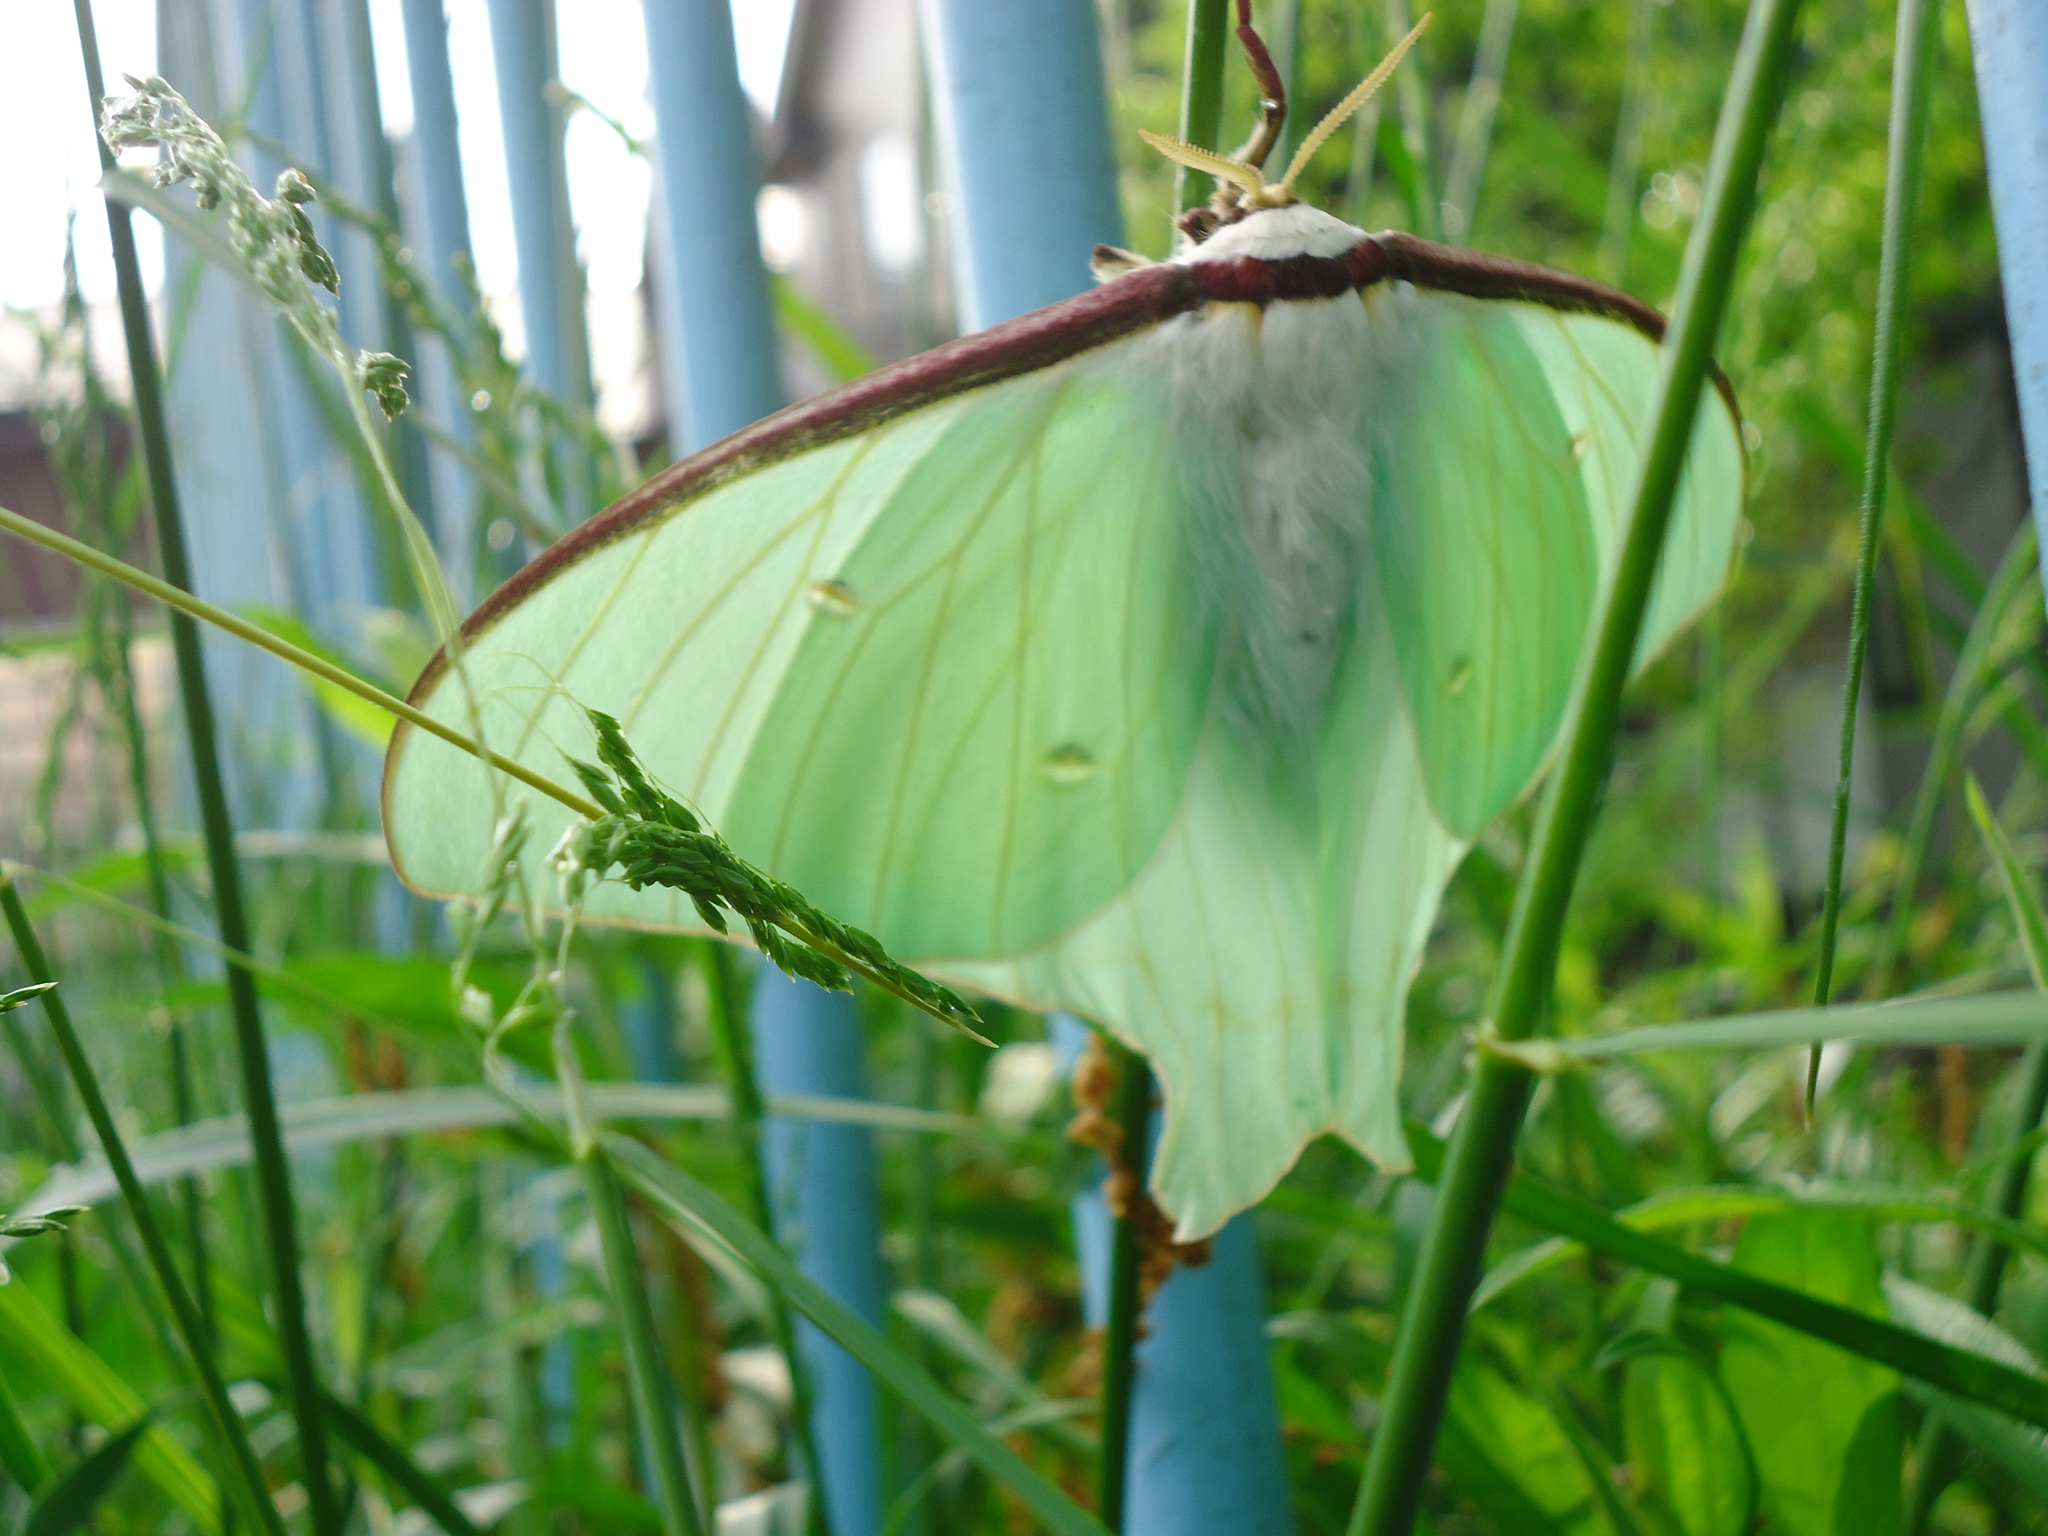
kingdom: Animalia
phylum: Arthropoda
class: Insecta
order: Lepidoptera
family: Saturniidae
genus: Actias
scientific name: Actias aliena
